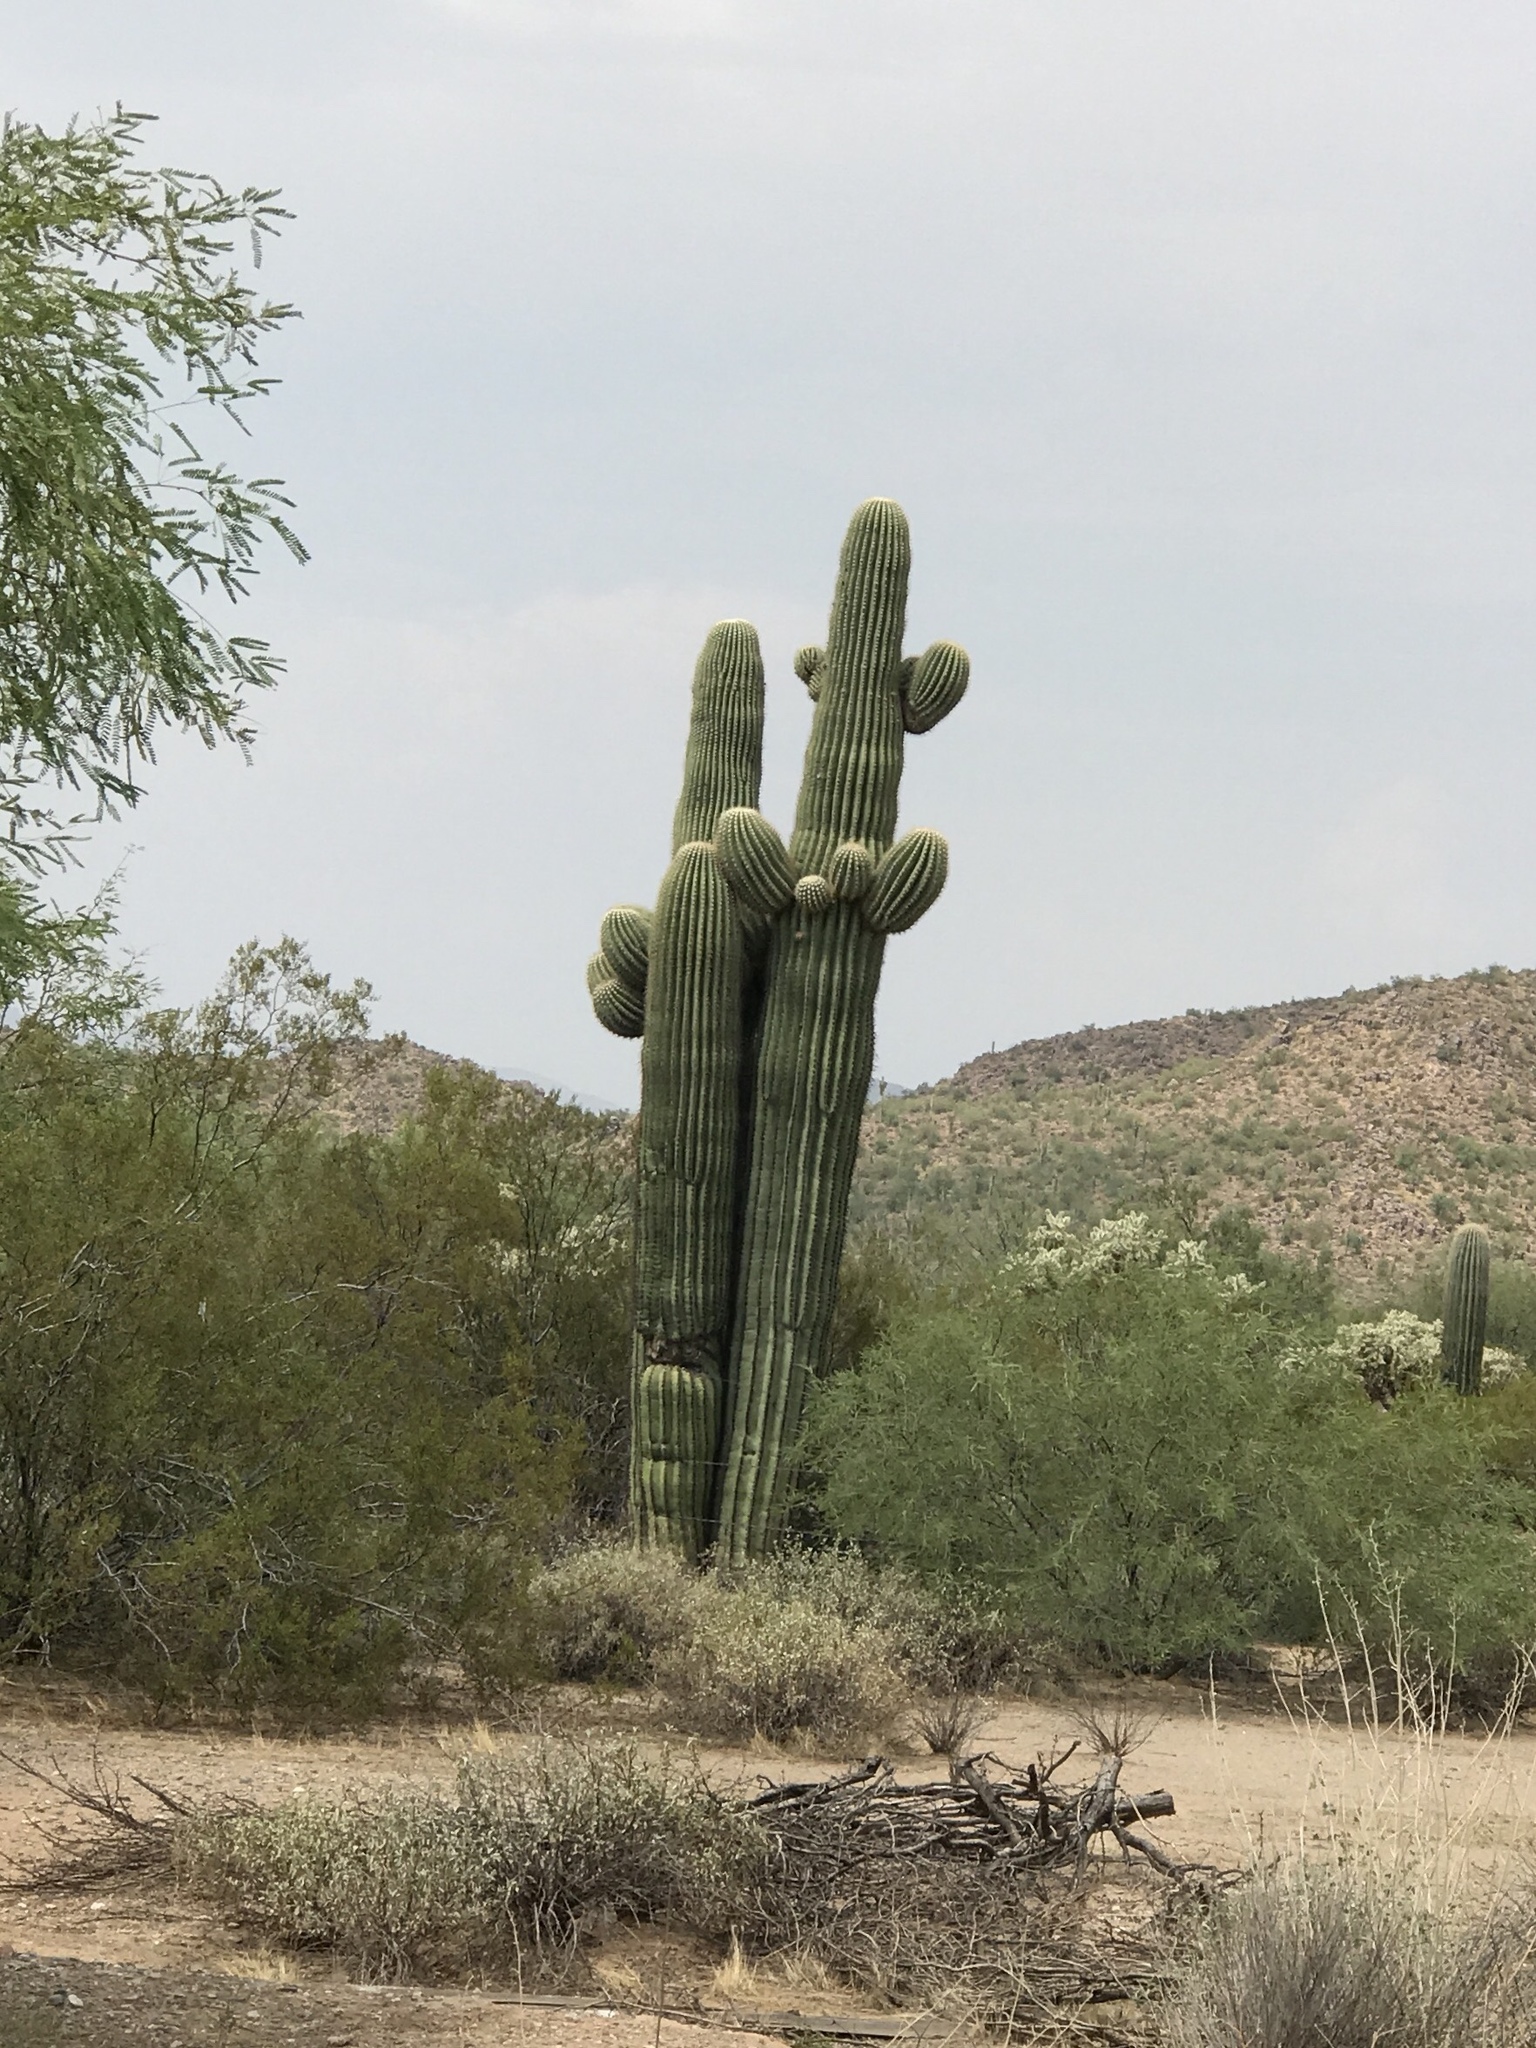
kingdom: Plantae
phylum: Tracheophyta
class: Magnoliopsida
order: Caryophyllales
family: Cactaceae
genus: Carnegiea
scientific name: Carnegiea gigantea
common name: Saguaro
